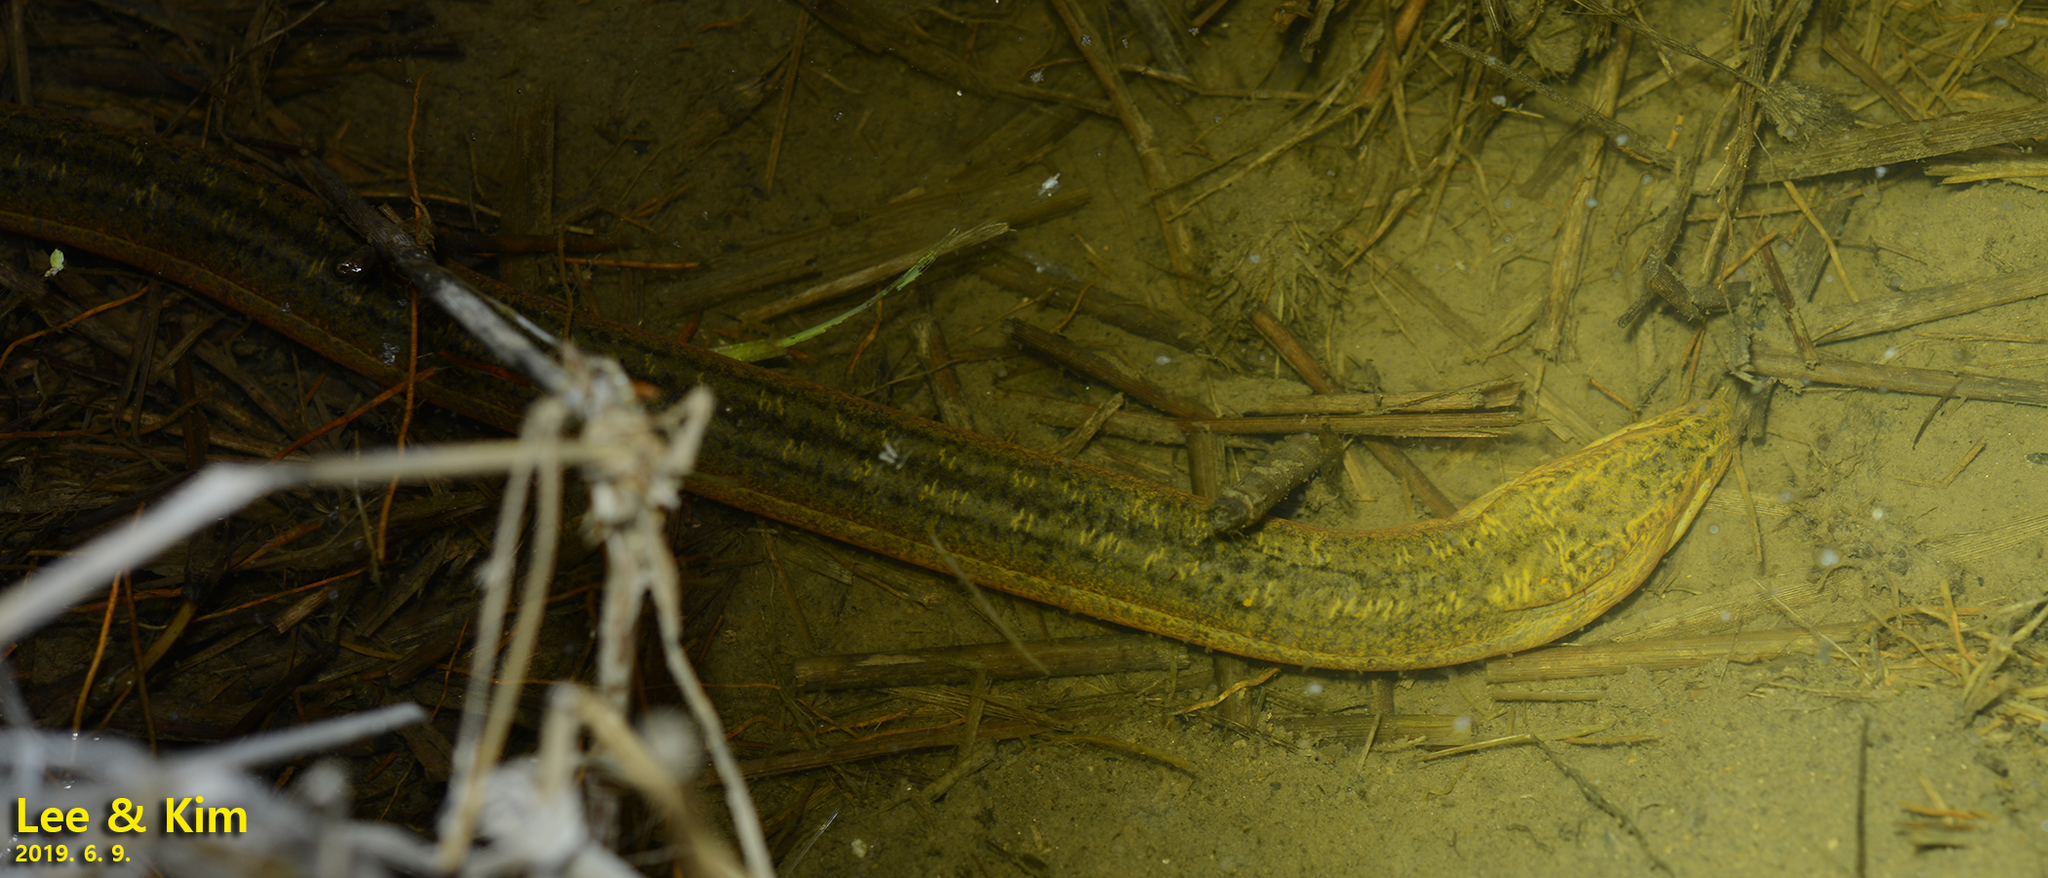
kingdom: Animalia
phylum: Chordata
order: Synbranchiformes
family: Synbranchidae
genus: Monopterus
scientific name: Monopterus albus
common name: Asian swamp eel
